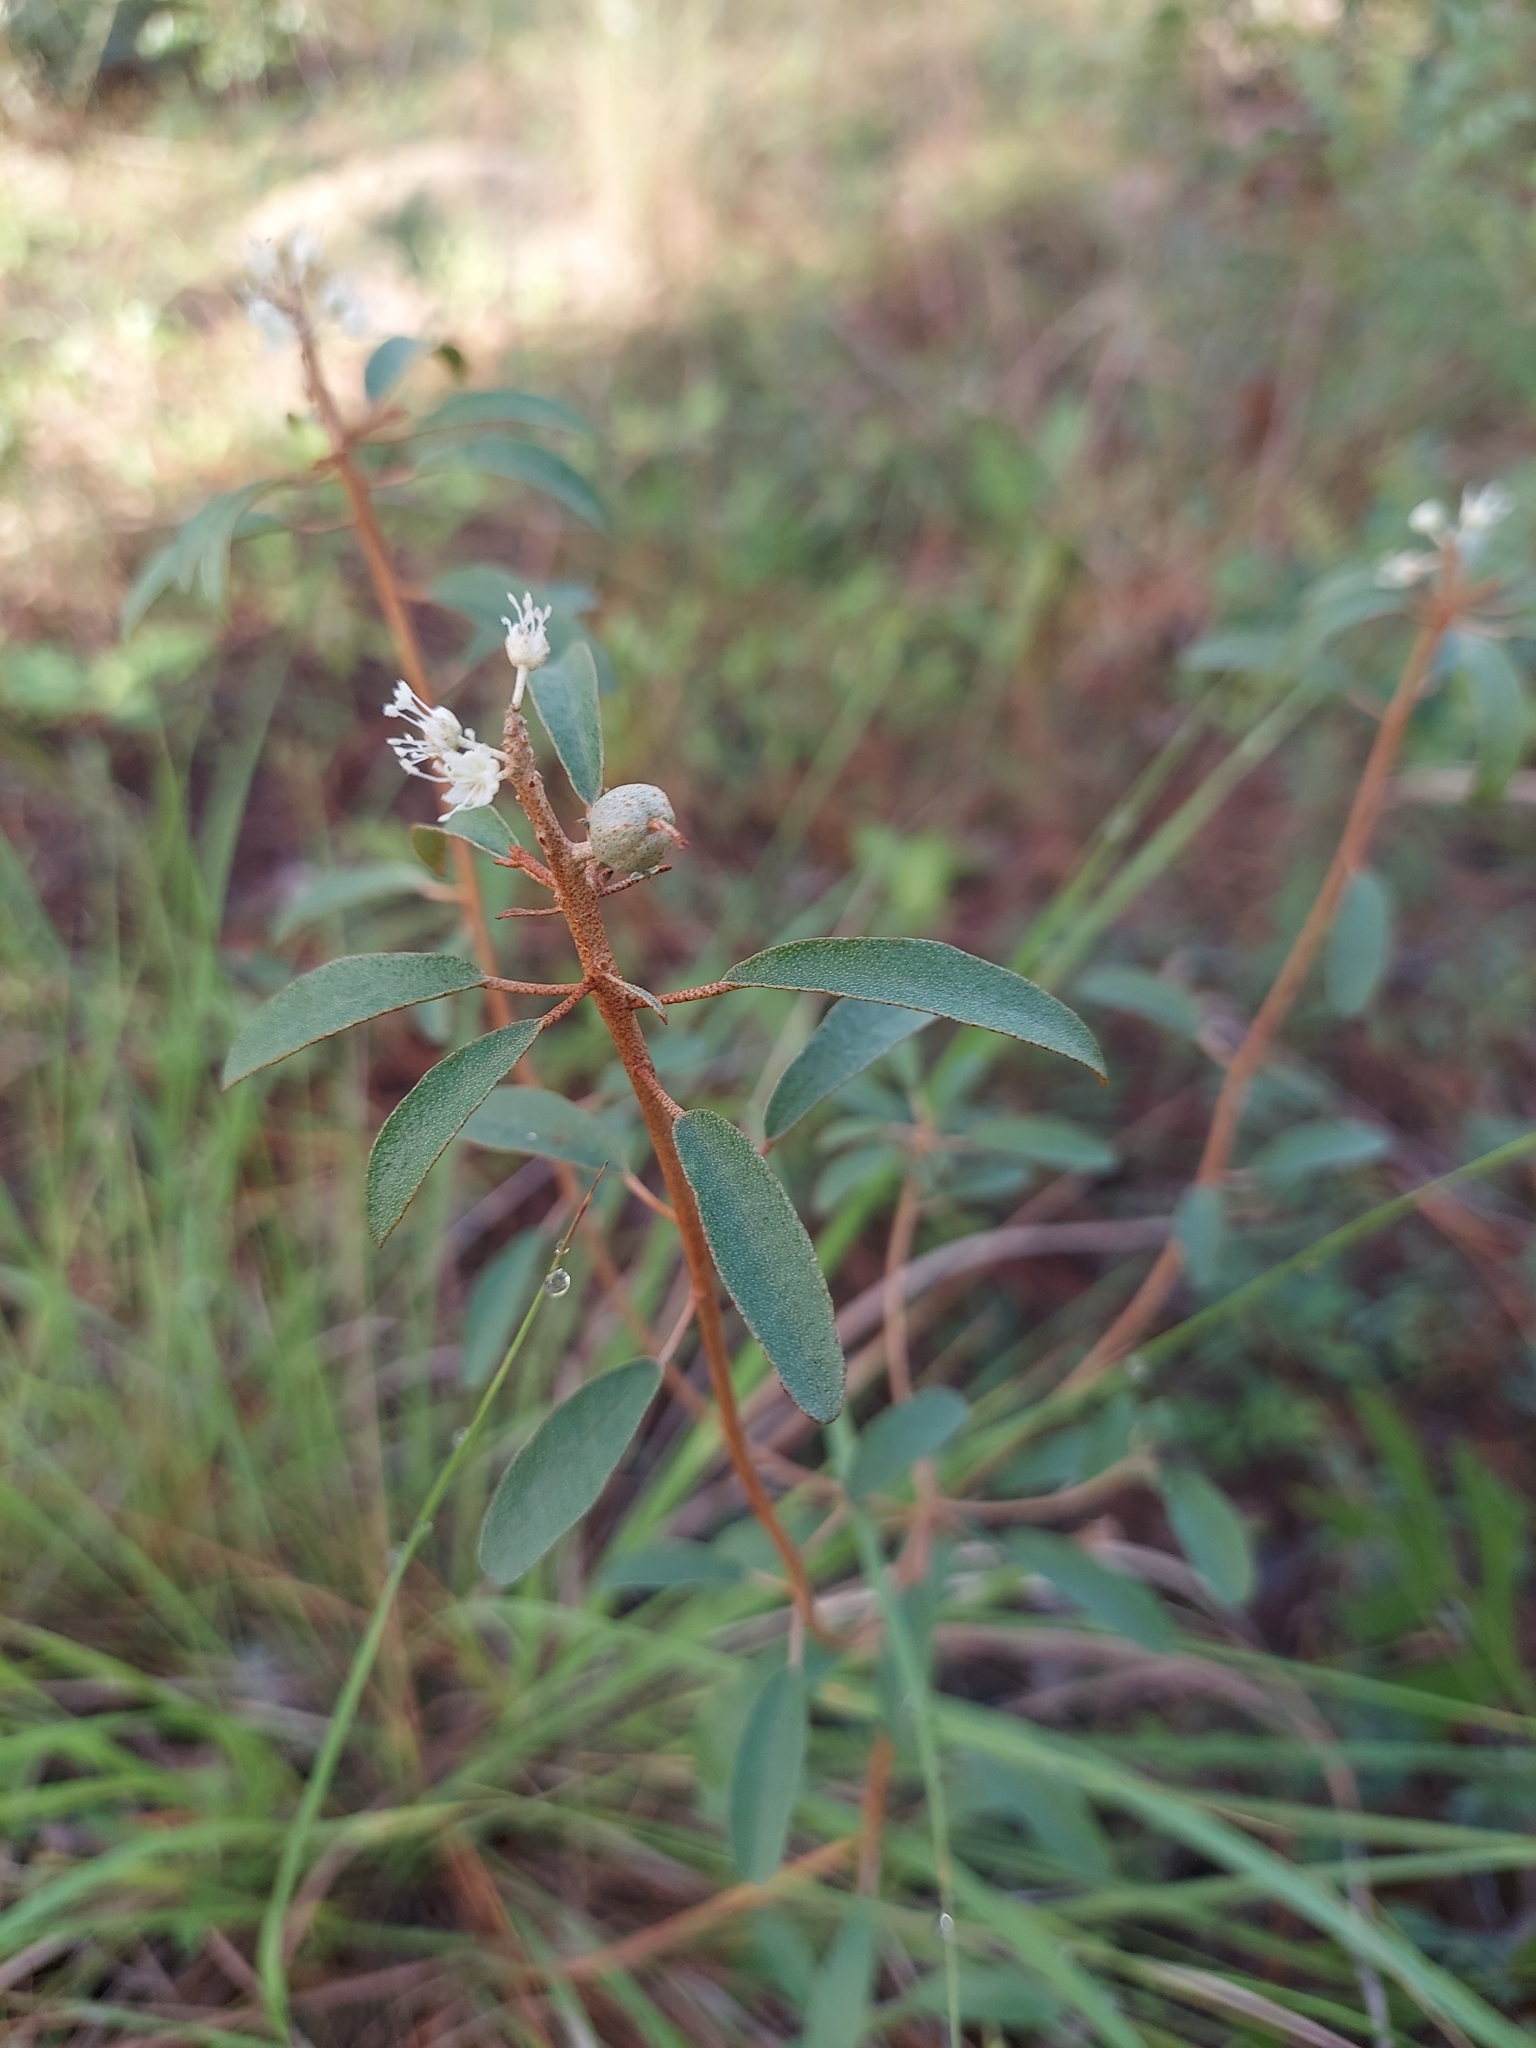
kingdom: Plantae
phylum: Tracheophyta
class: Magnoliopsida
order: Malpighiales
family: Euphorbiaceae
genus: Croton
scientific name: Croton argyranthemus
